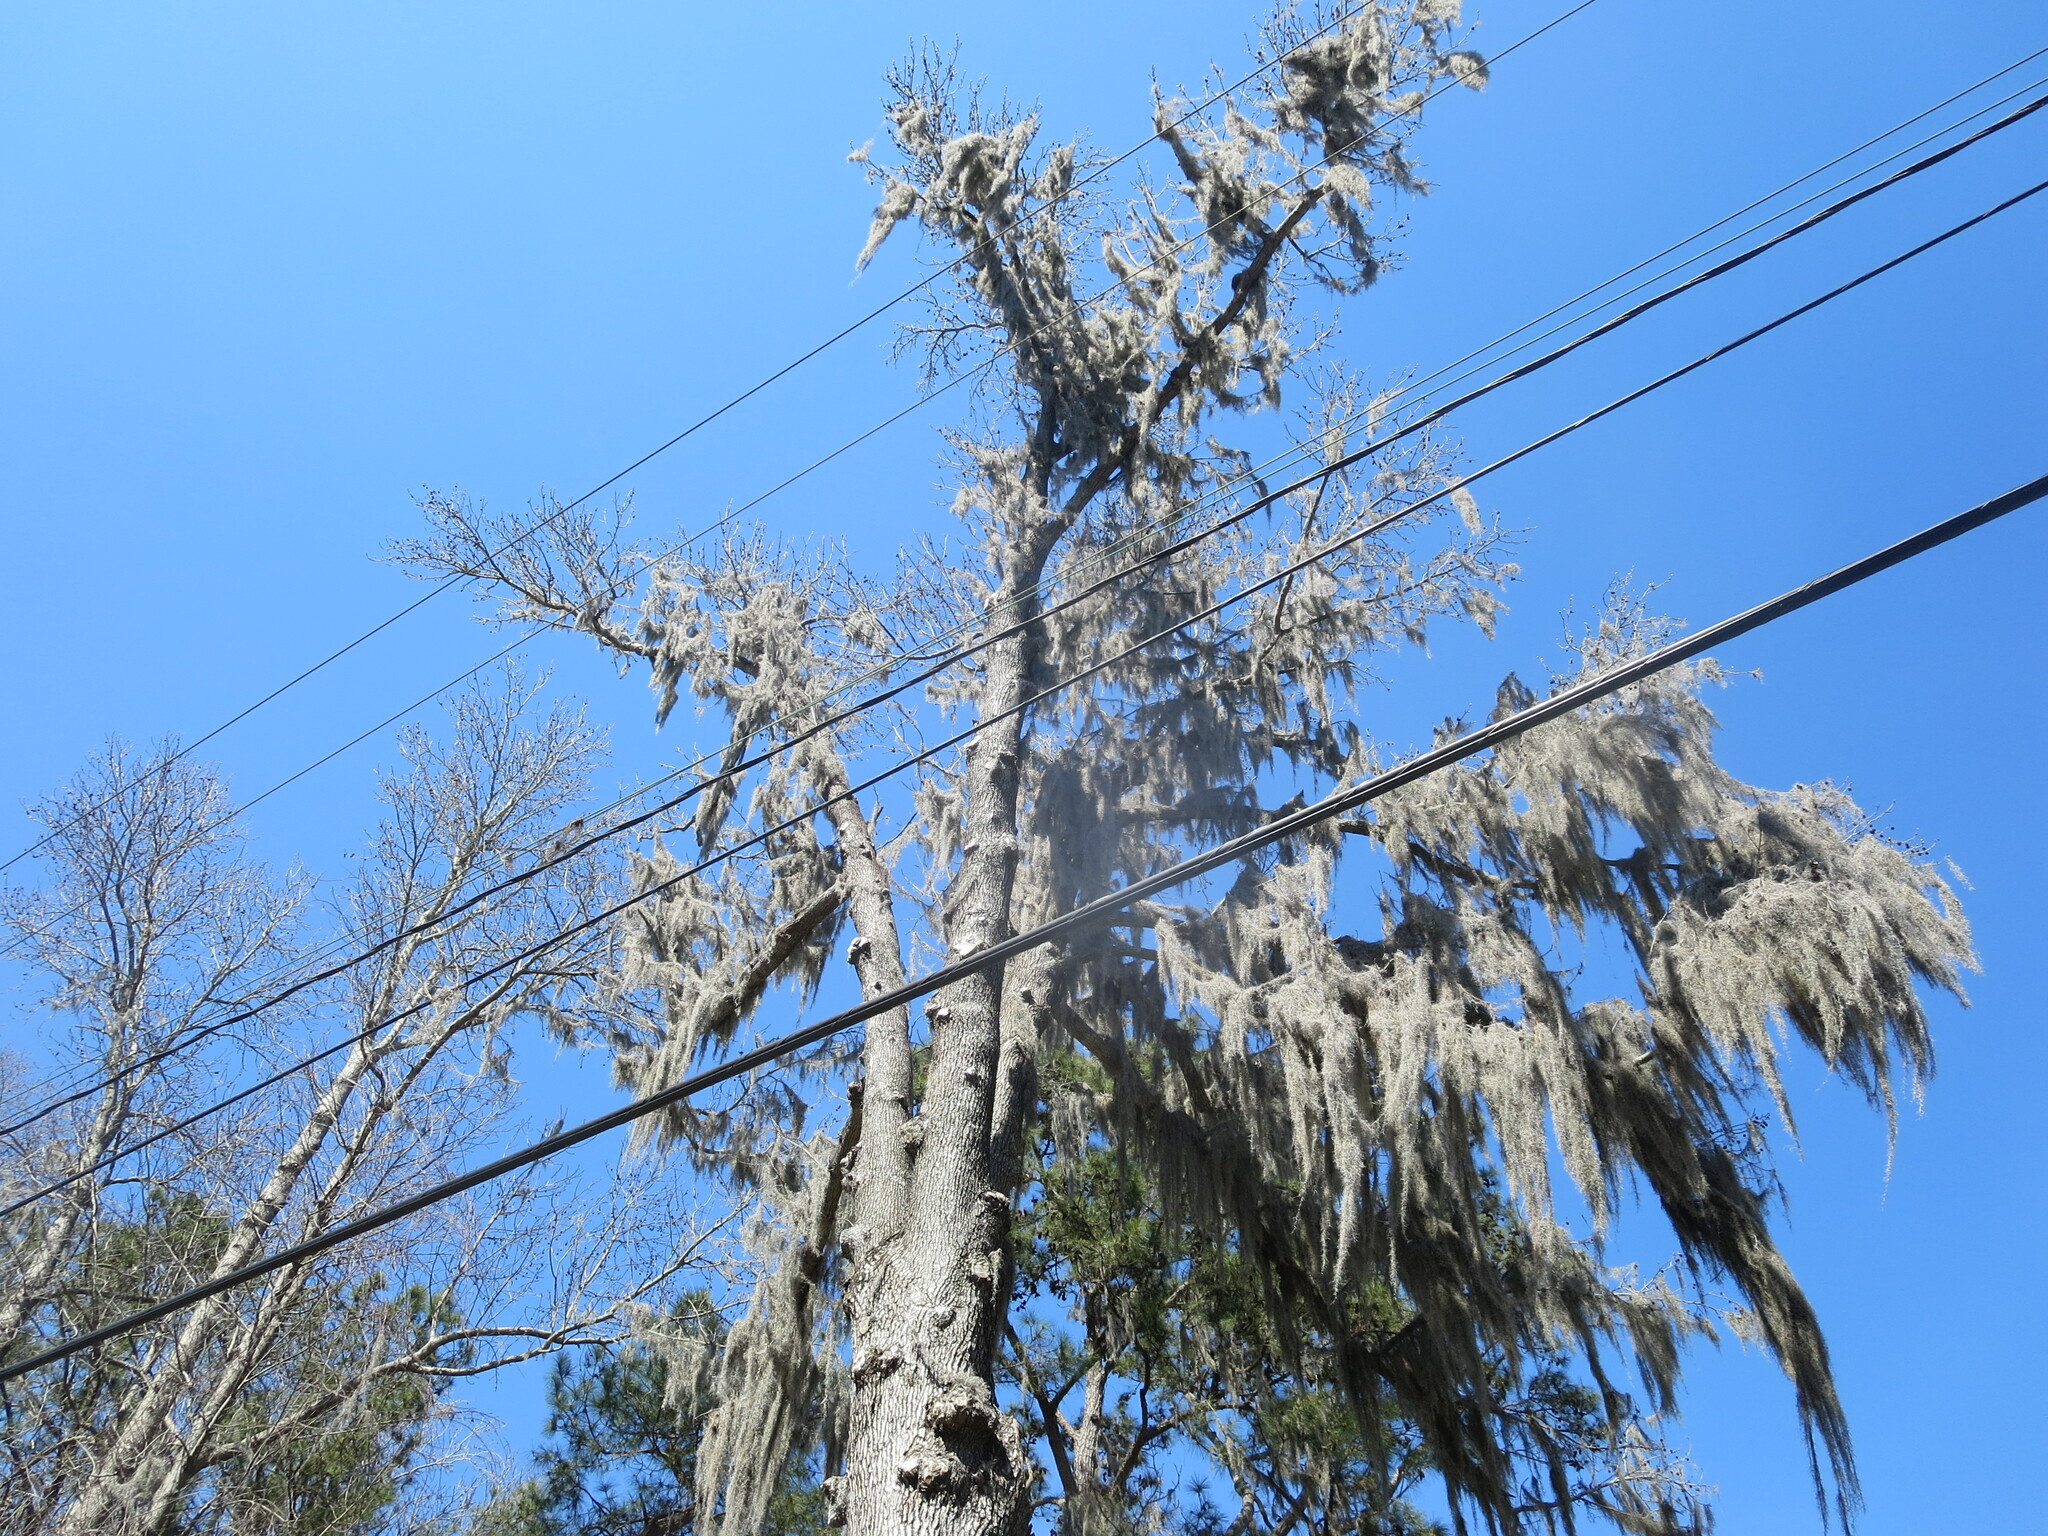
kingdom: Plantae
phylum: Tracheophyta
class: Liliopsida
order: Poales
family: Bromeliaceae
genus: Tillandsia
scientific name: Tillandsia usneoides
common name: Spanish moss
